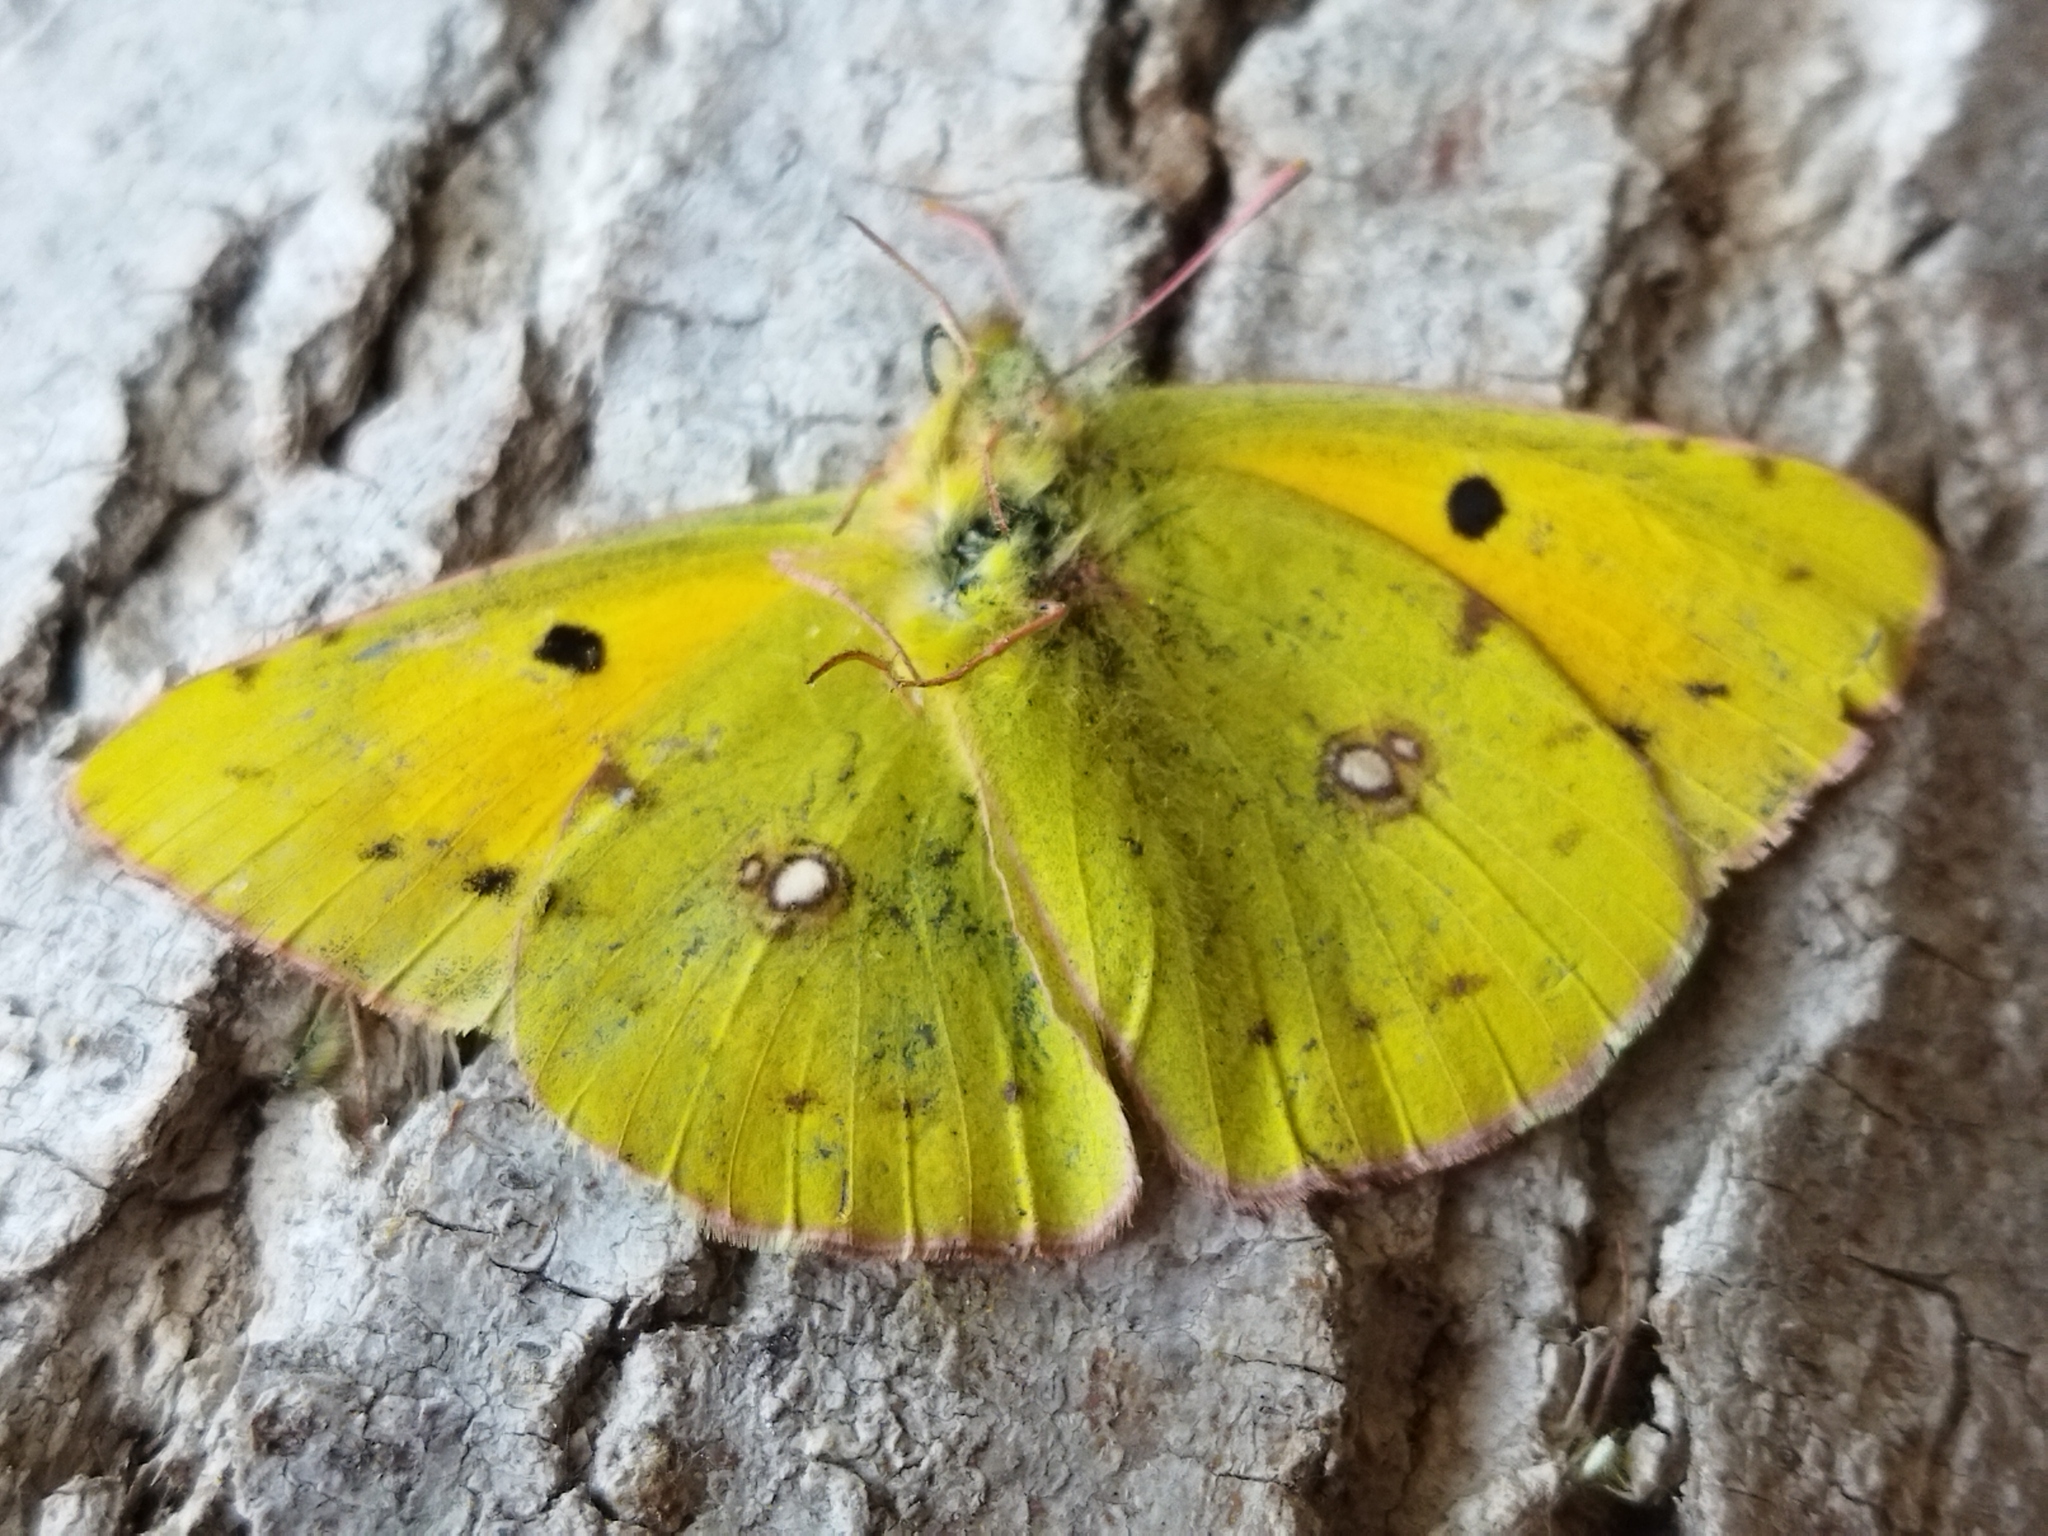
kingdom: Animalia
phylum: Arthropoda
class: Insecta
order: Lepidoptera
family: Pieridae
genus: Colias
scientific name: Colias croceus
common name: Clouded yellow
